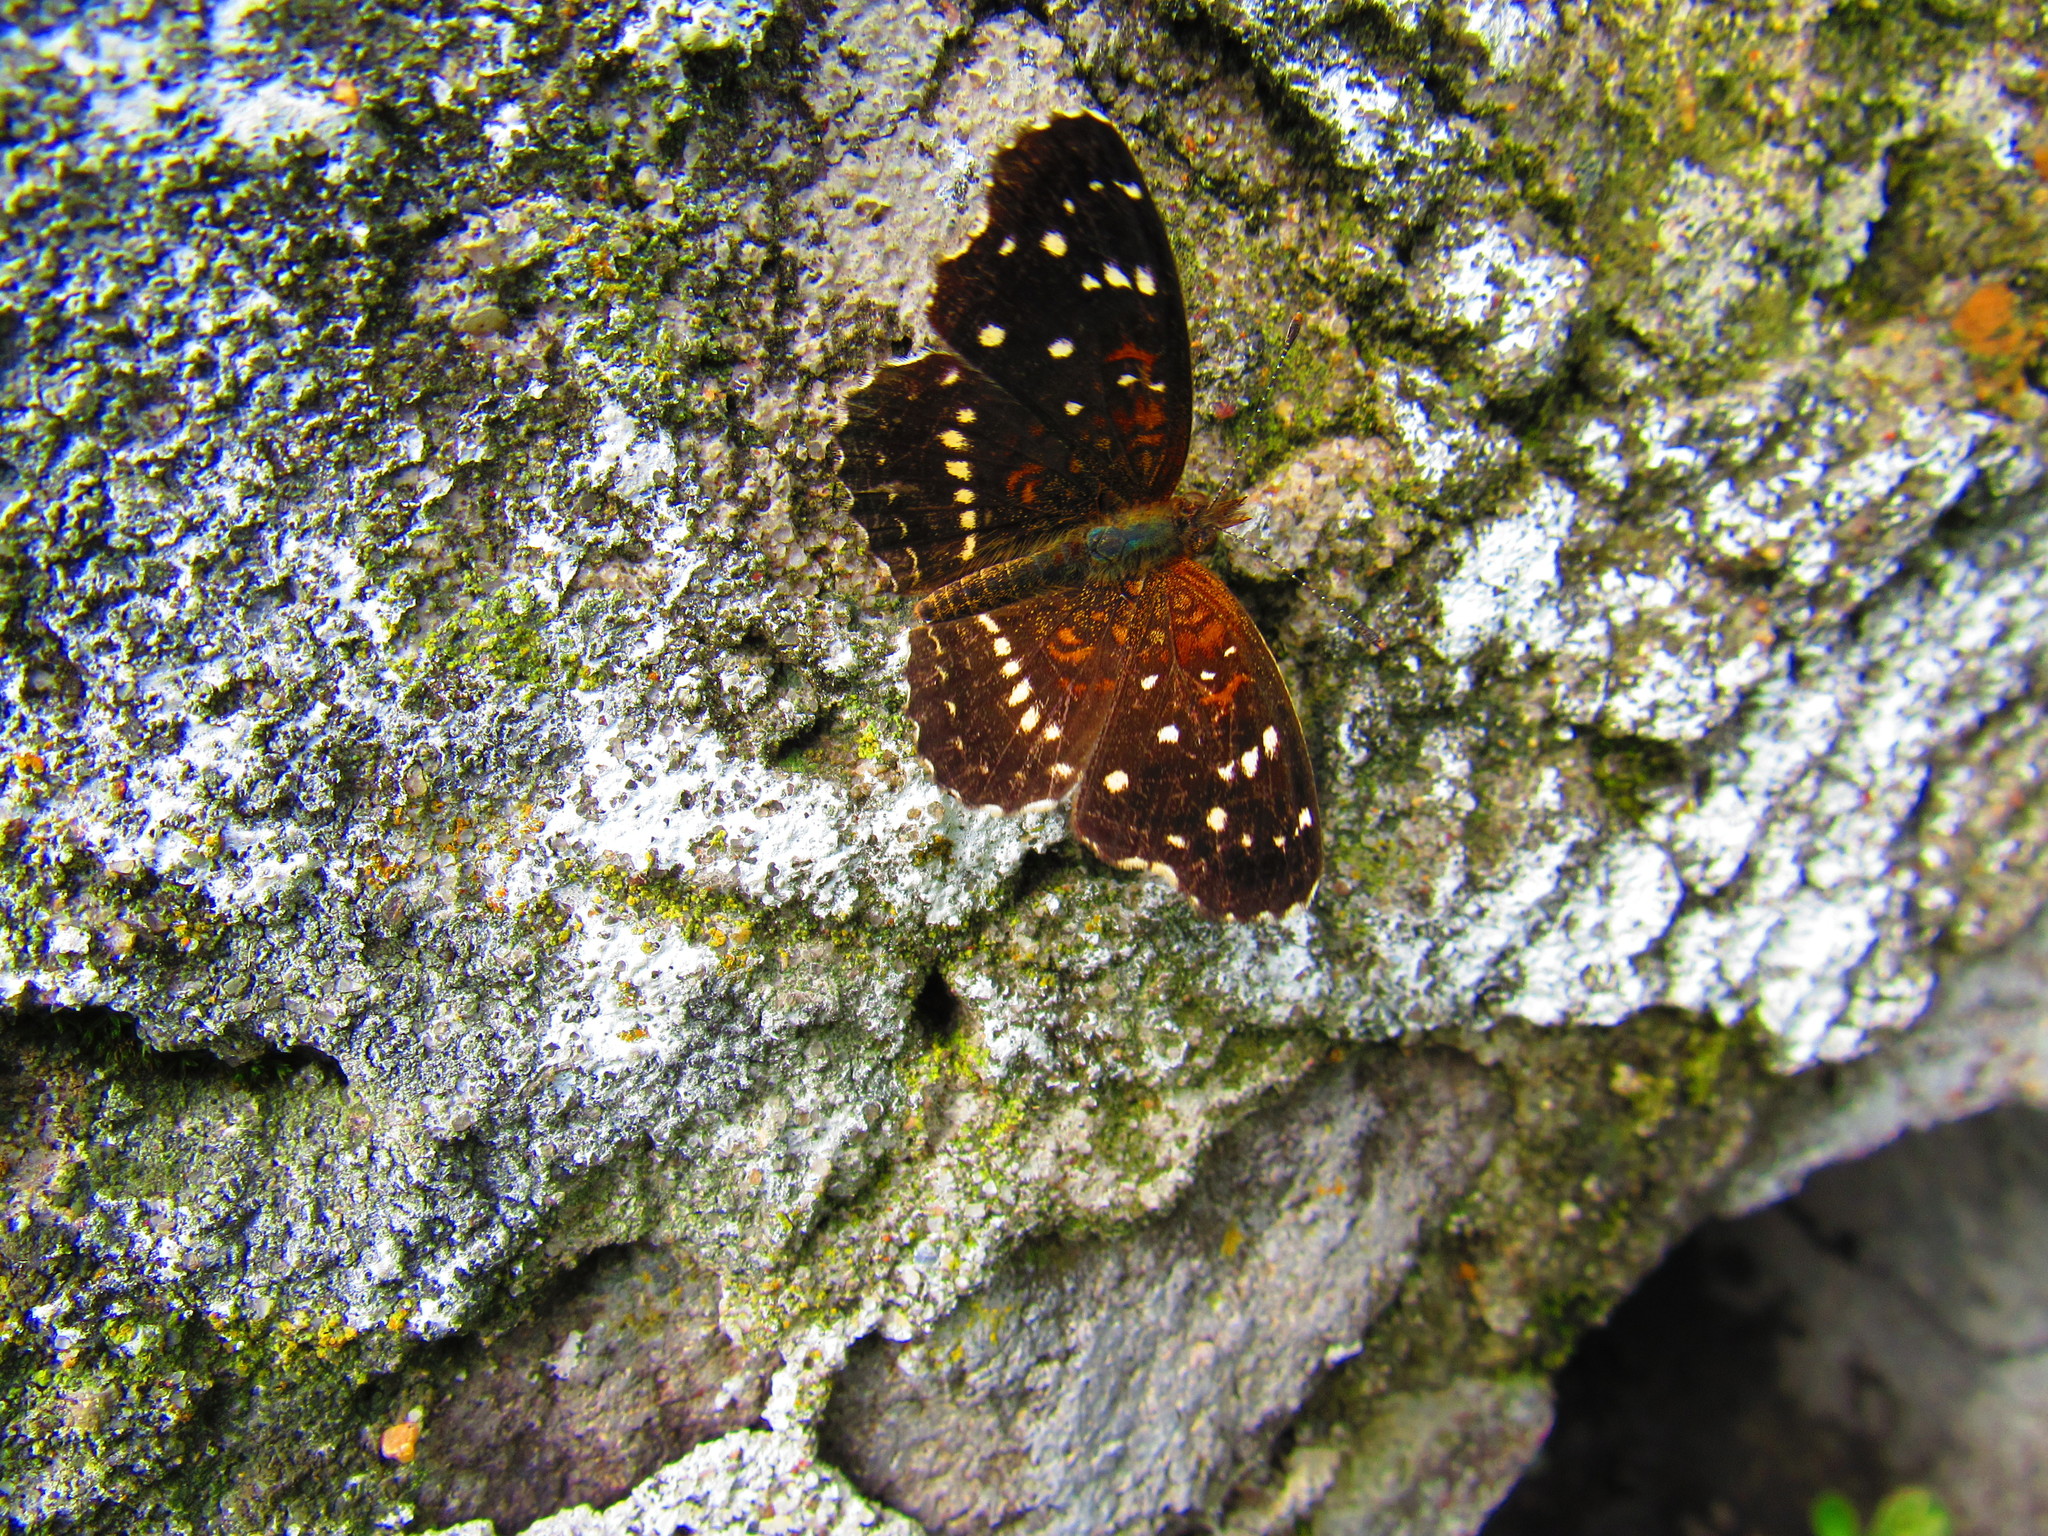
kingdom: Animalia
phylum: Arthropoda
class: Insecta
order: Lepidoptera
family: Nymphalidae
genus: Anthanassa
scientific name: Anthanassa texana
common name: Texan crescent
